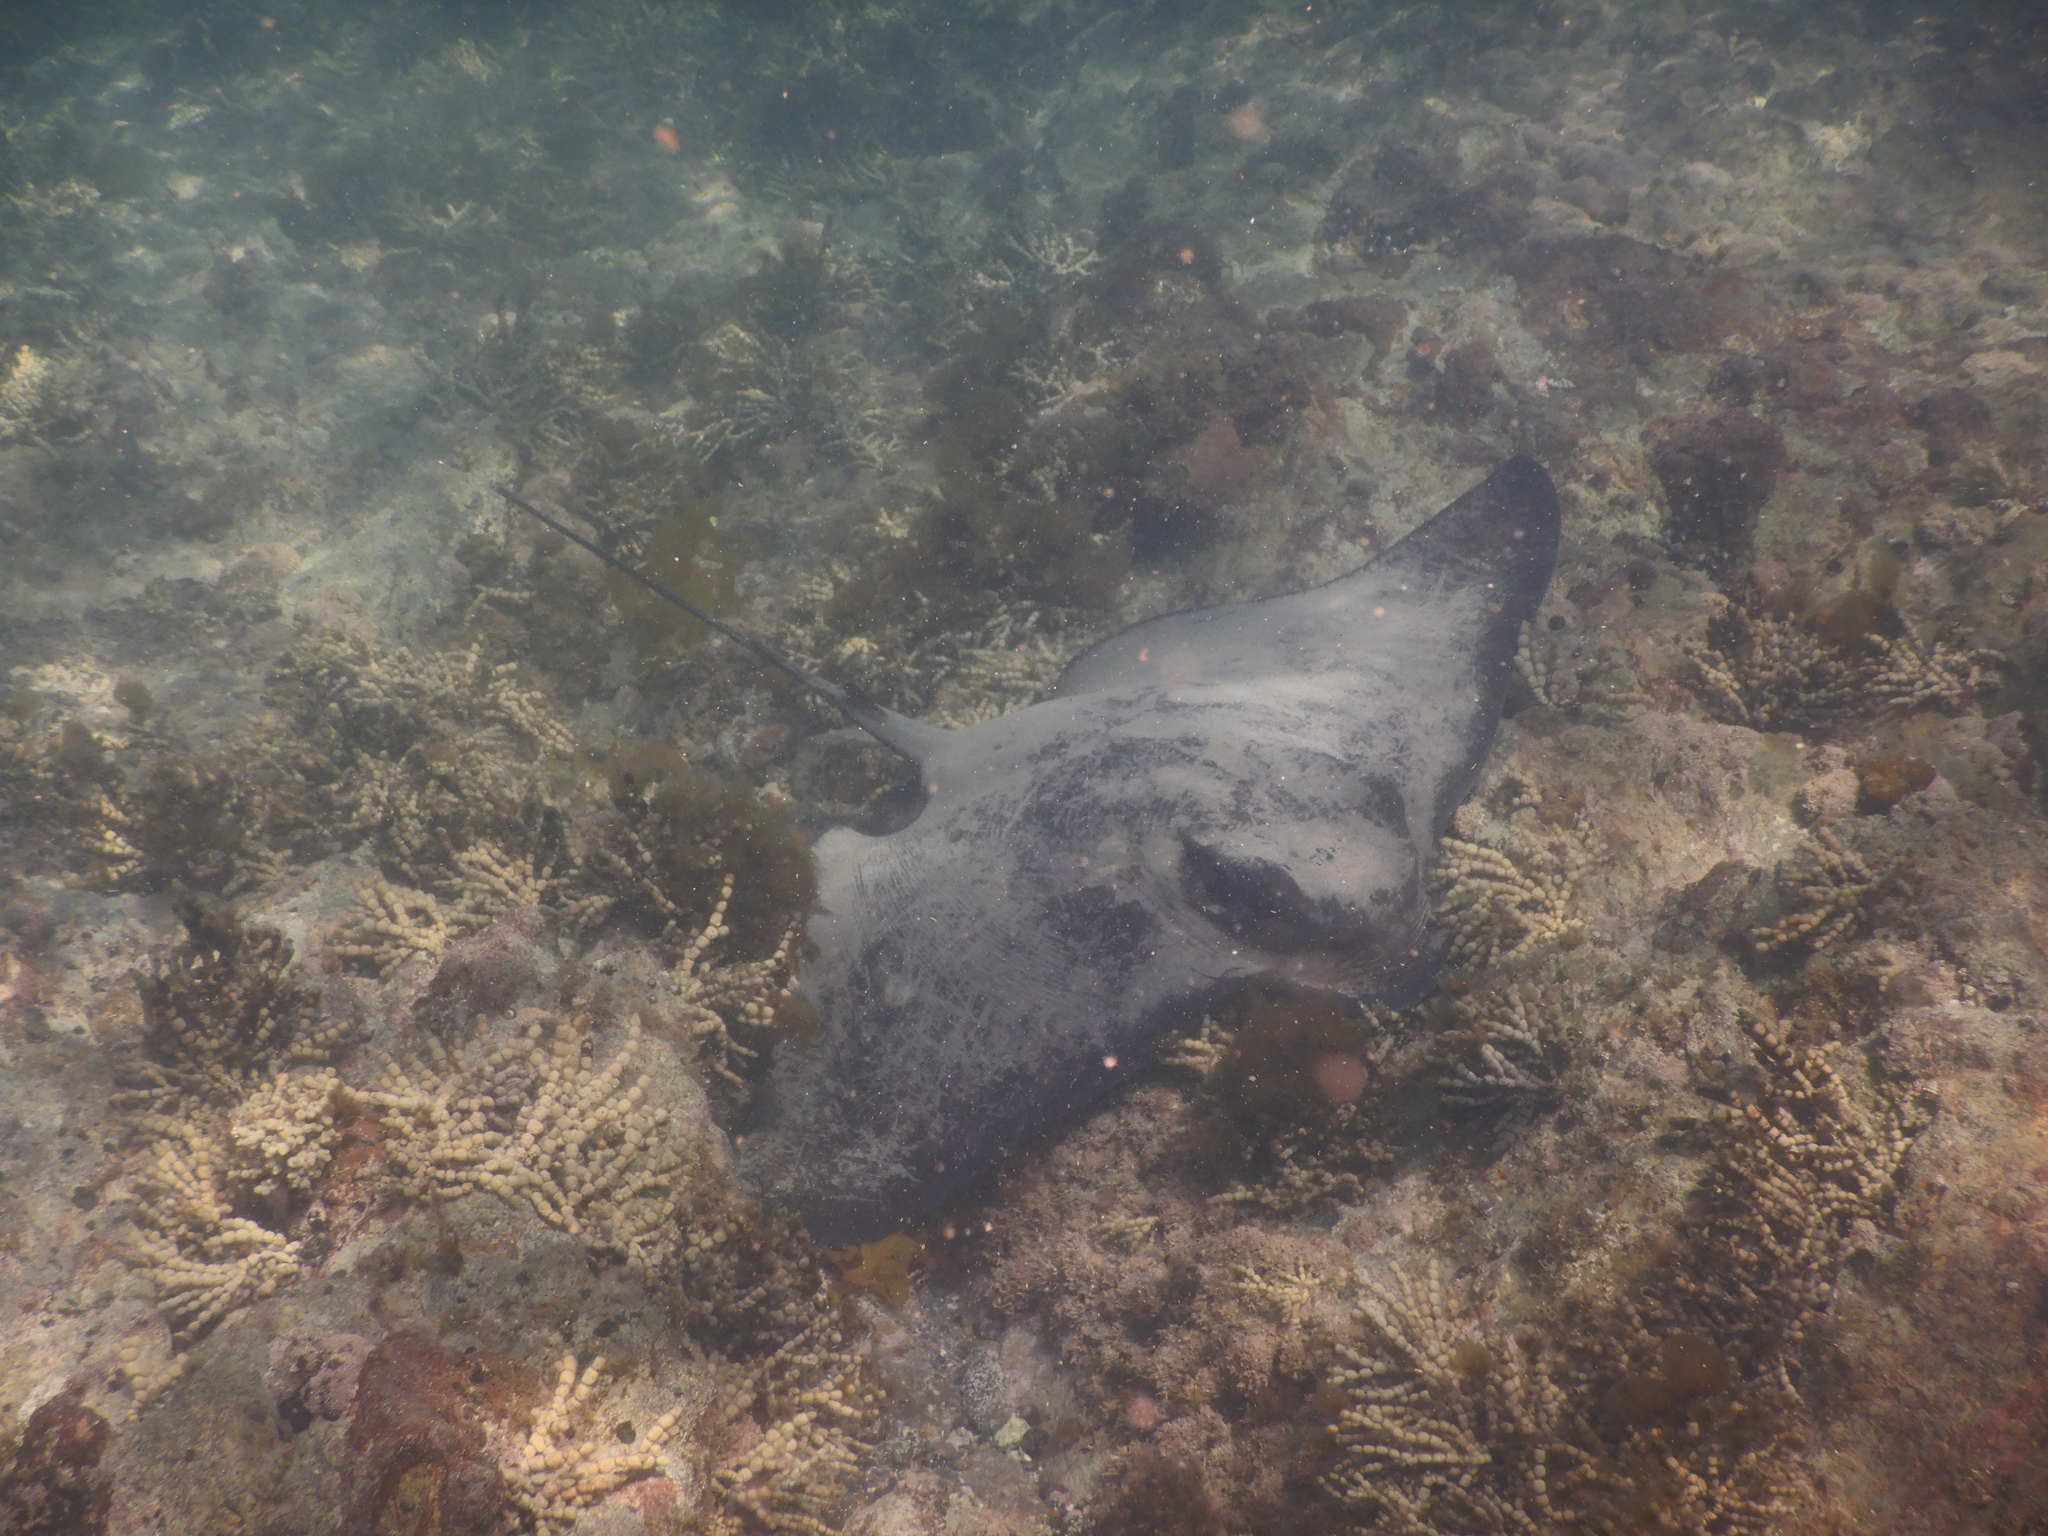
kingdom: Animalia
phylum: Chordata
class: Elasmobranchii
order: Myliobatiformes
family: Myliobatidae
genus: Myliobatis
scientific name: Myliobatis tenuicaudatus
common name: Eagle ray
